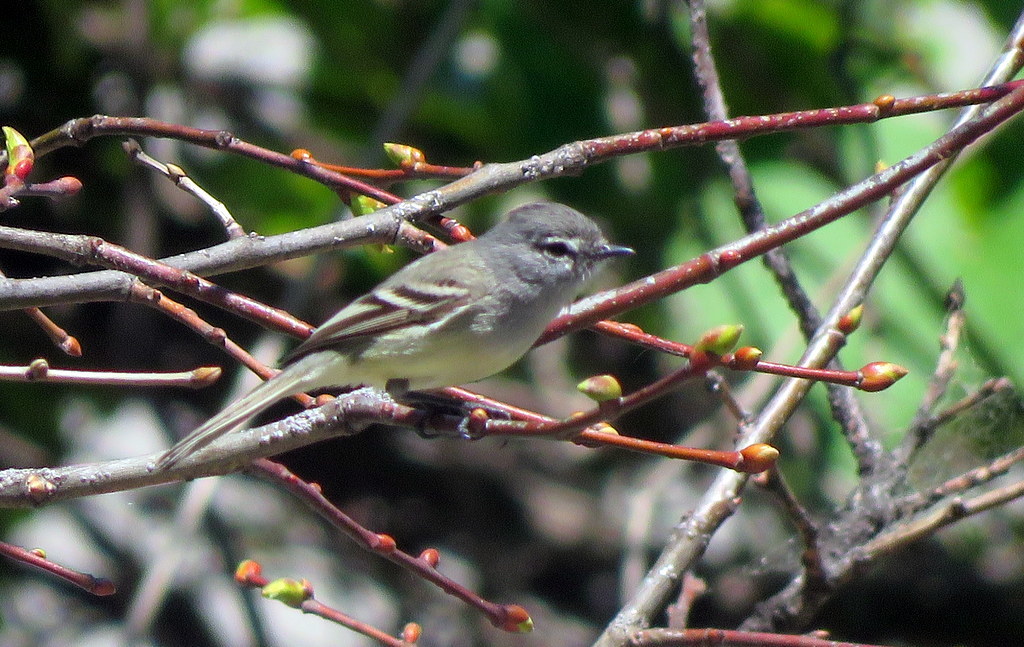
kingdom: Animalia
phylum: Chordata
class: Aves
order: Passeriformes
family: Tyrannidae
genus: Serpophaga
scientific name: Serpophaga subcristata
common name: White-crested tyrannulet
